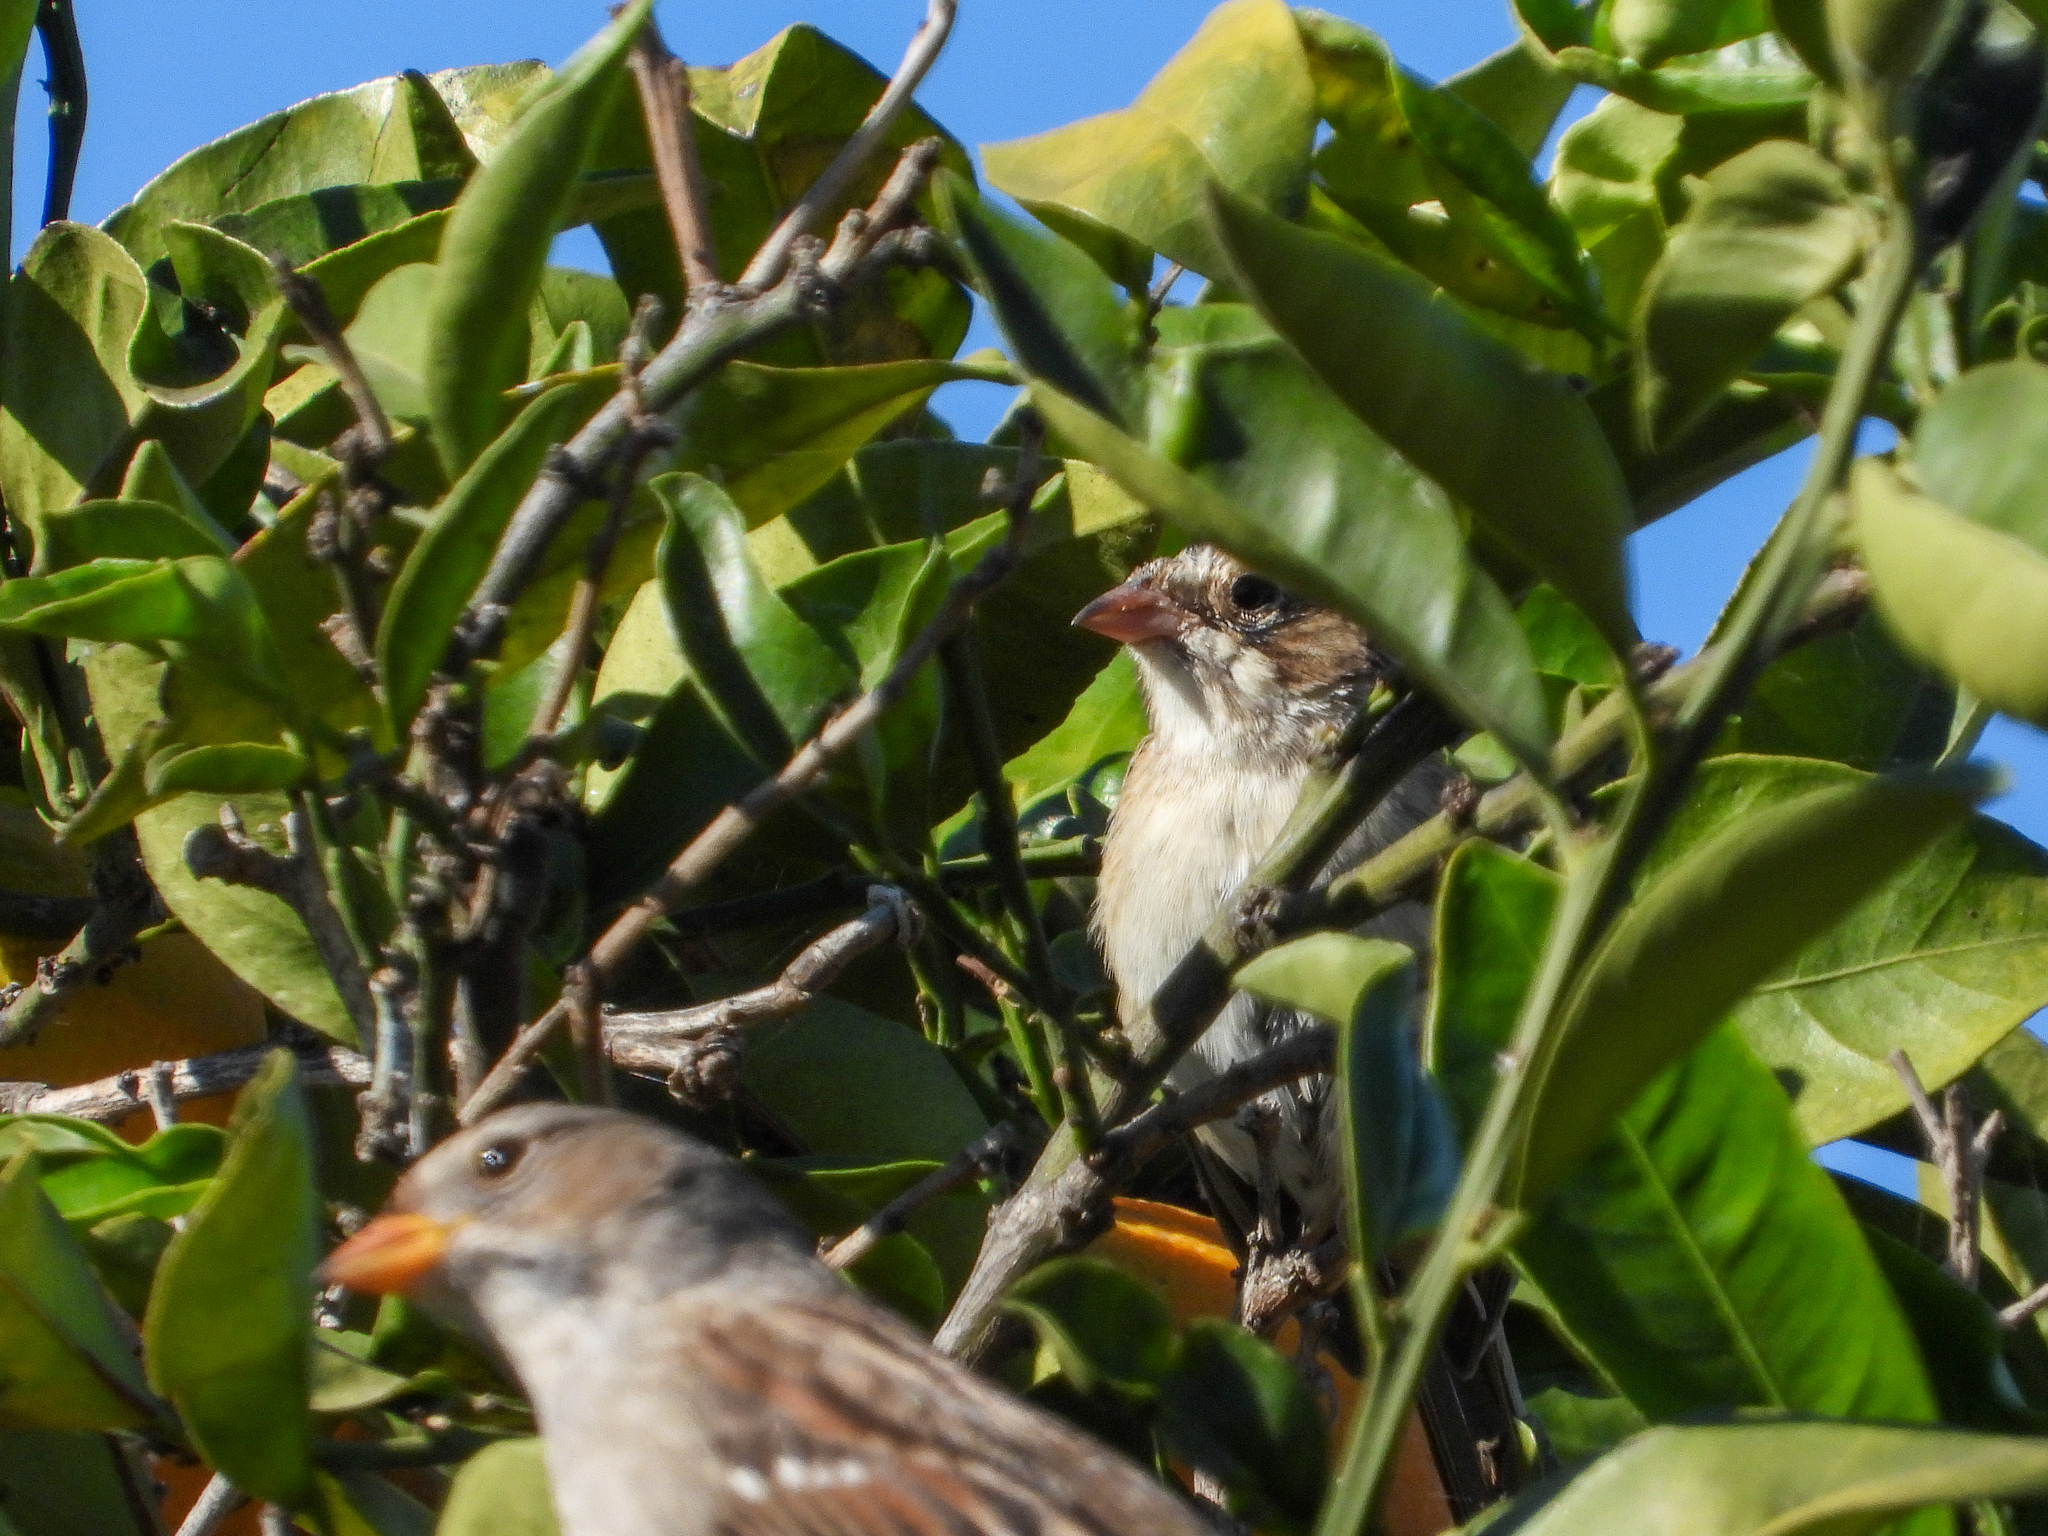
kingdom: Animalia
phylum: Chordata
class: Aves
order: Passeriformes
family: Passerellidae
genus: Spizella
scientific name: Spizella pallida
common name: Clay-colored sparrow
